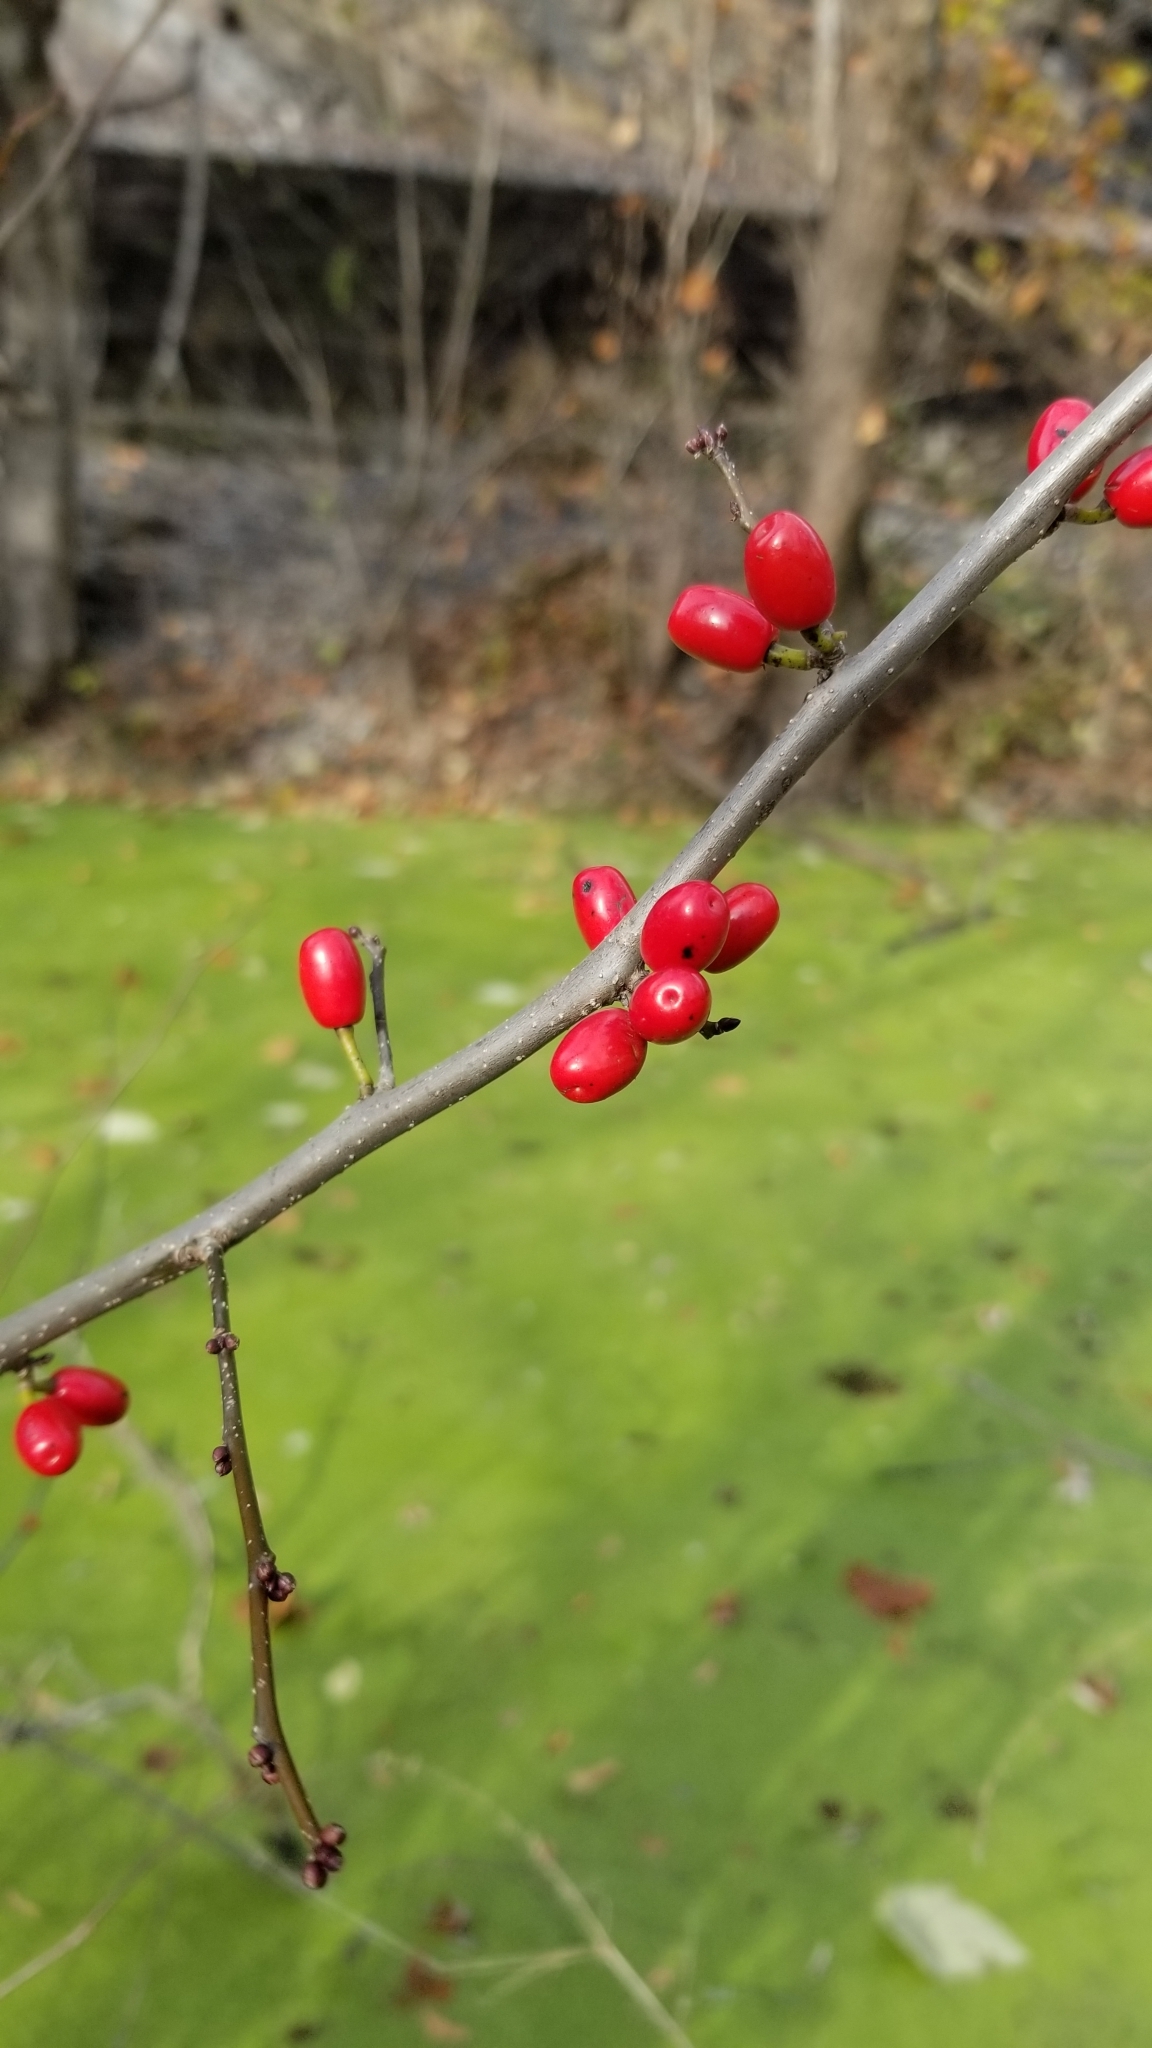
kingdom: Plantae
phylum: Tracheophyta
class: Magnoliopsida
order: Laurales
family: Lauraceae
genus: Lindera
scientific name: Lindera benzoin
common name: Spicebush
